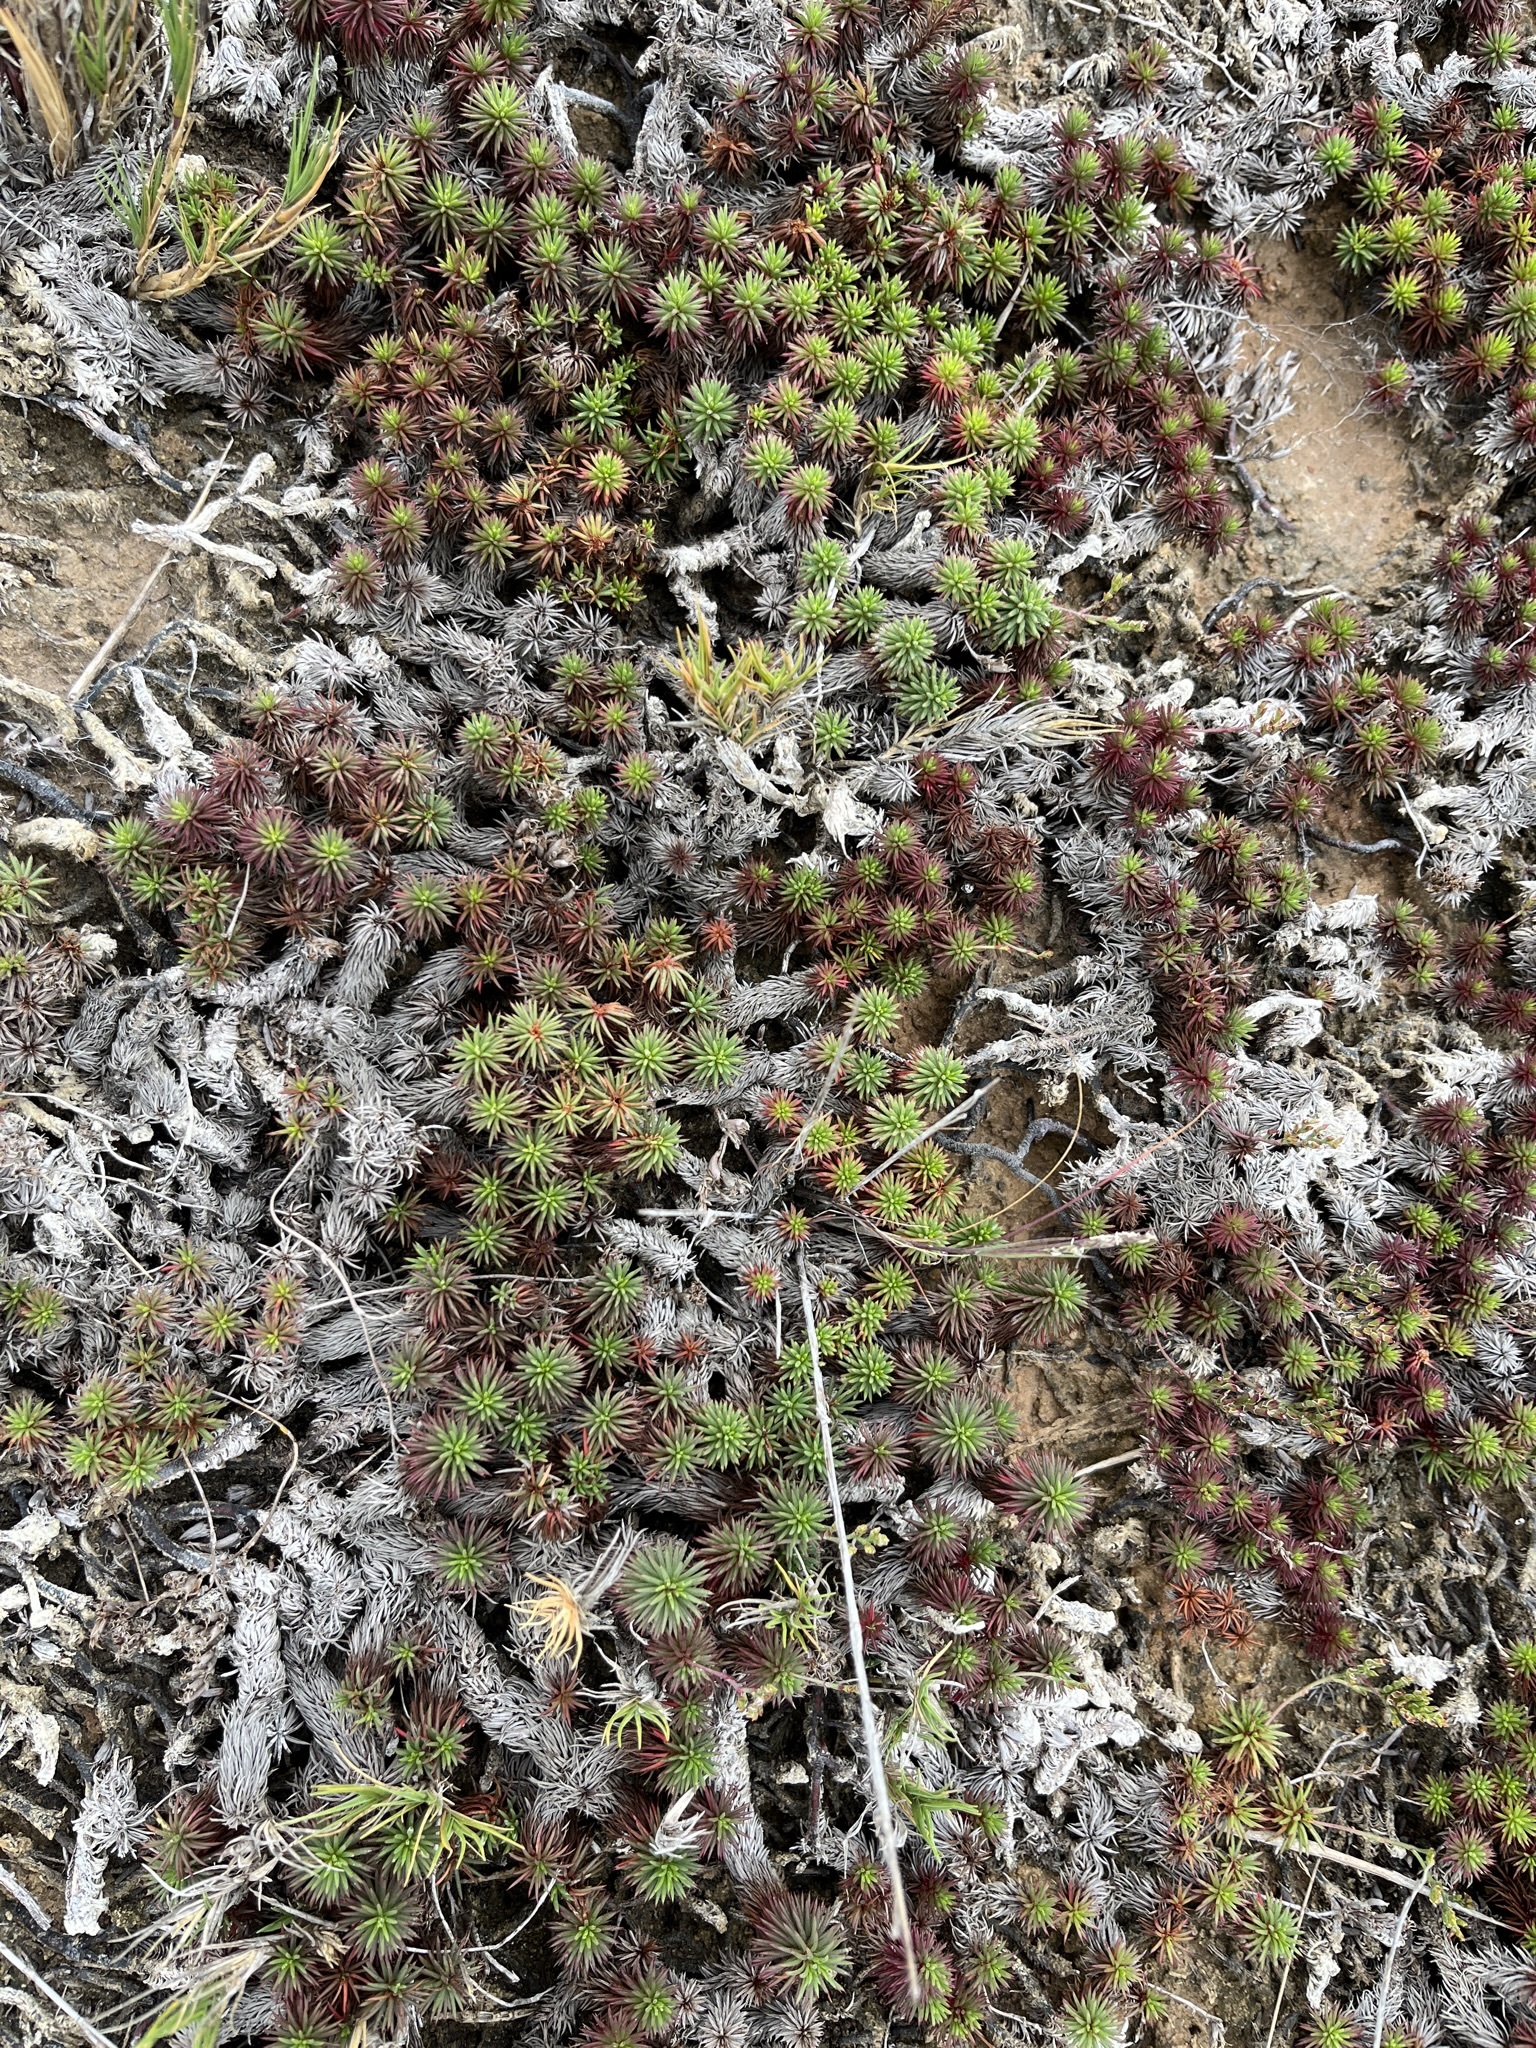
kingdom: Plantae
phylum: Tracheophyta
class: Magnoliopsida
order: Caryophyllales
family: Plumbaginaceae
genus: Limonium
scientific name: Limonium kraussianum
